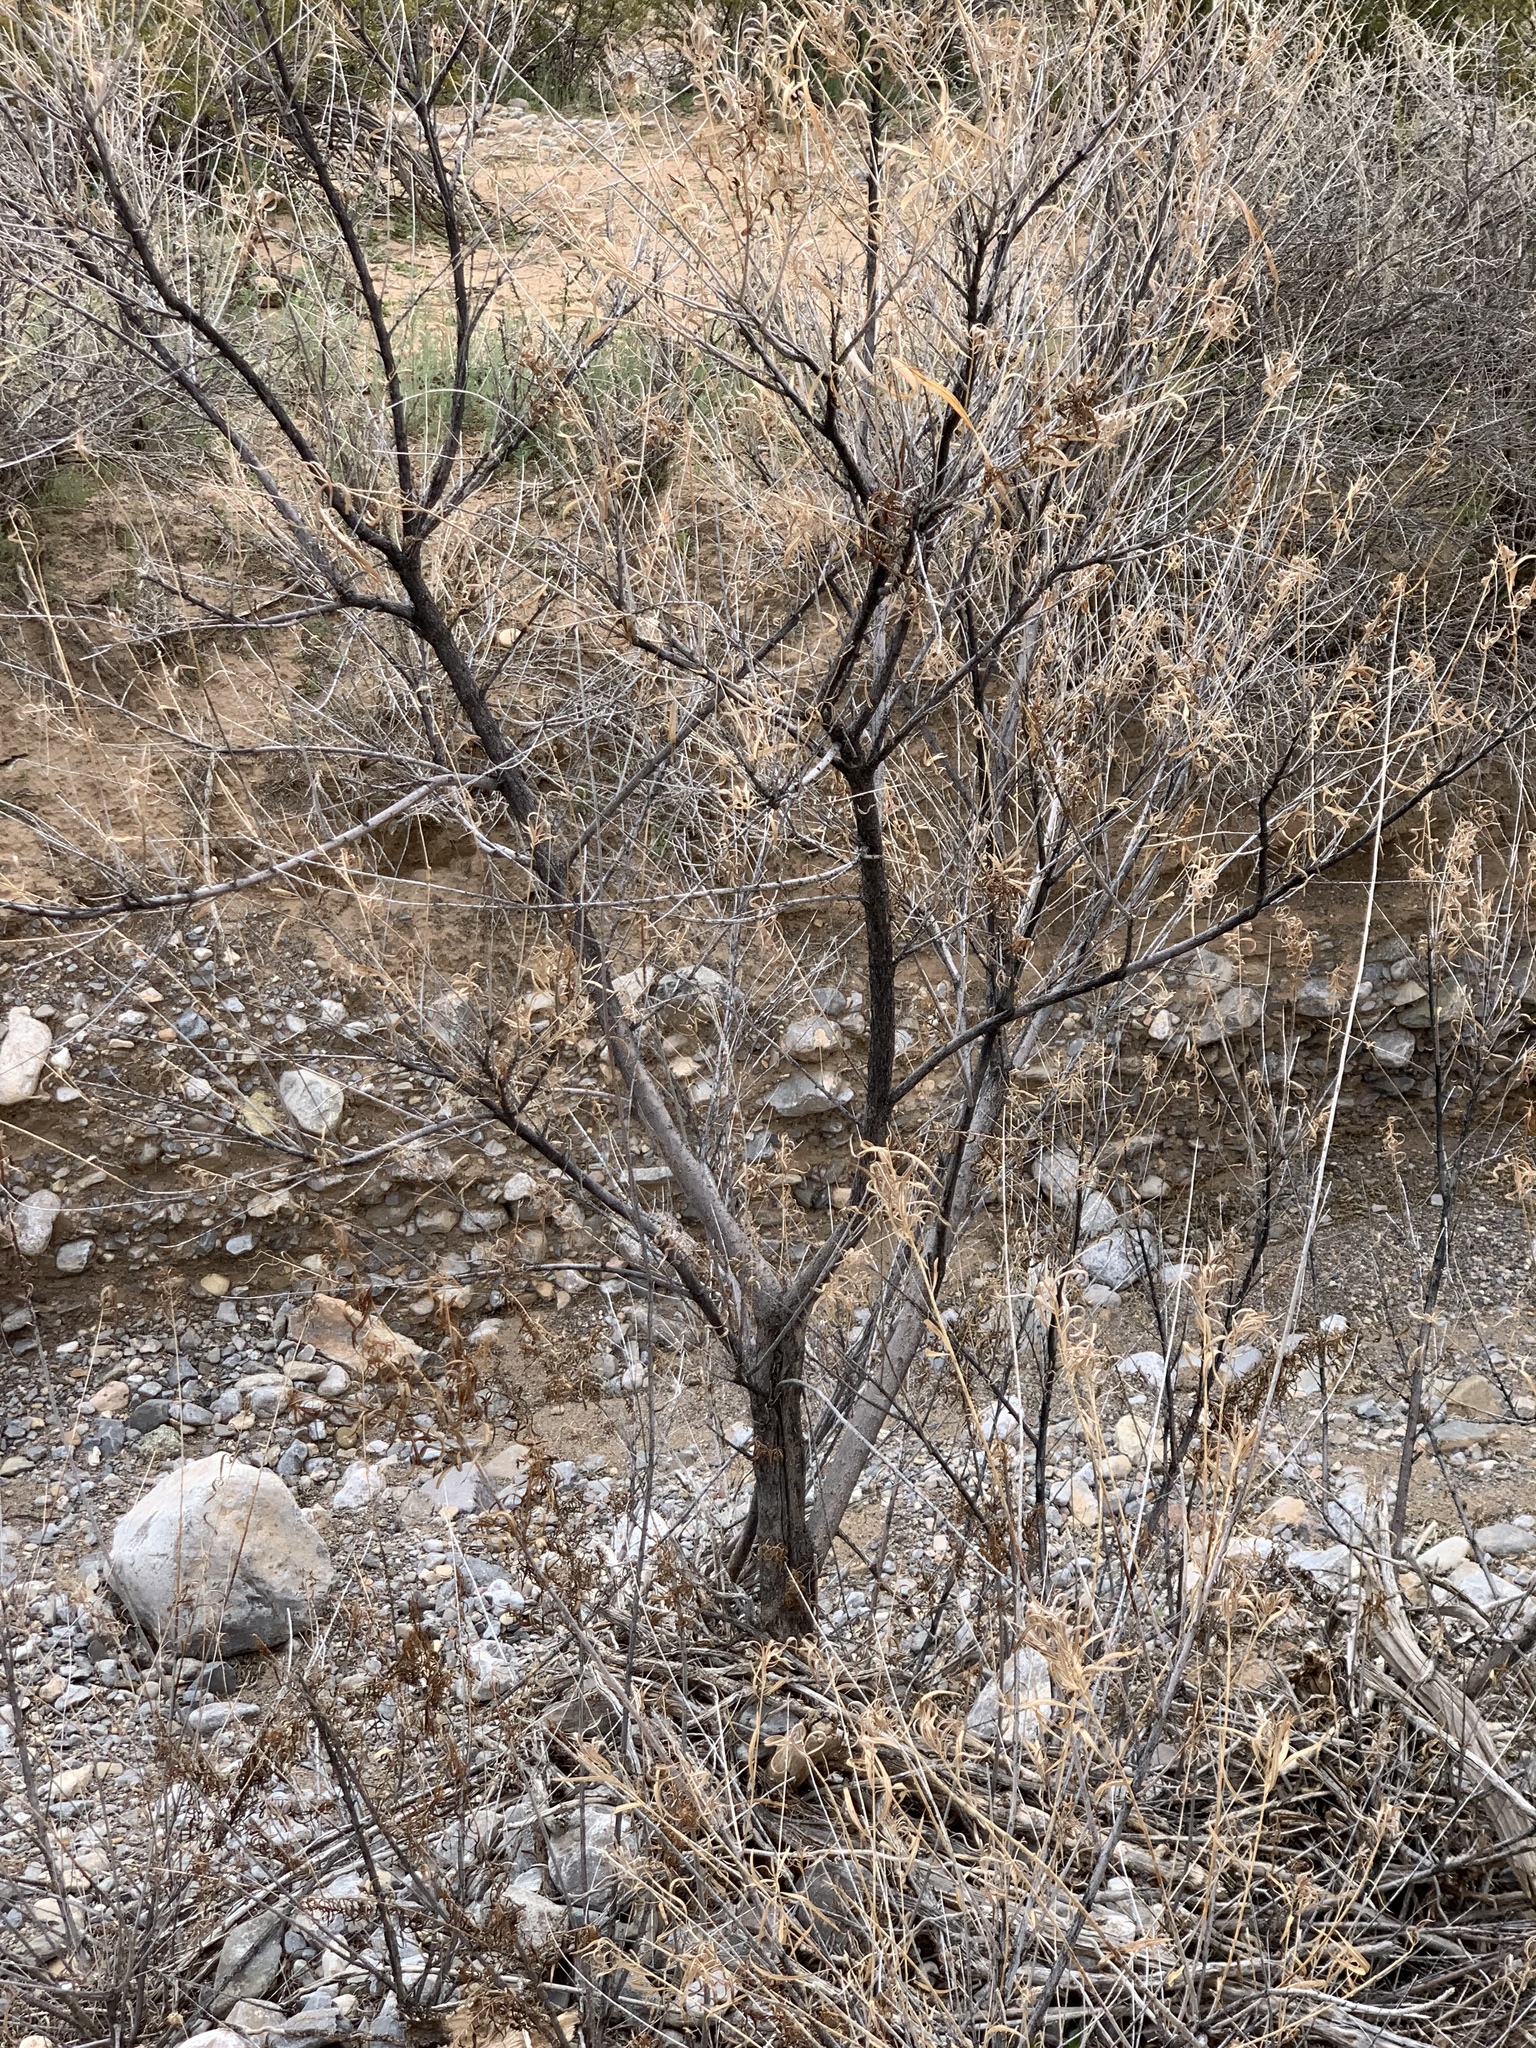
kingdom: Plantae
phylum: Tracheophyta
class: Magnoliopsida
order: Lamiales
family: Bignoniaceae
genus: Chilopsis
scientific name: Chilopsis linearis
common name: Desert-willow
